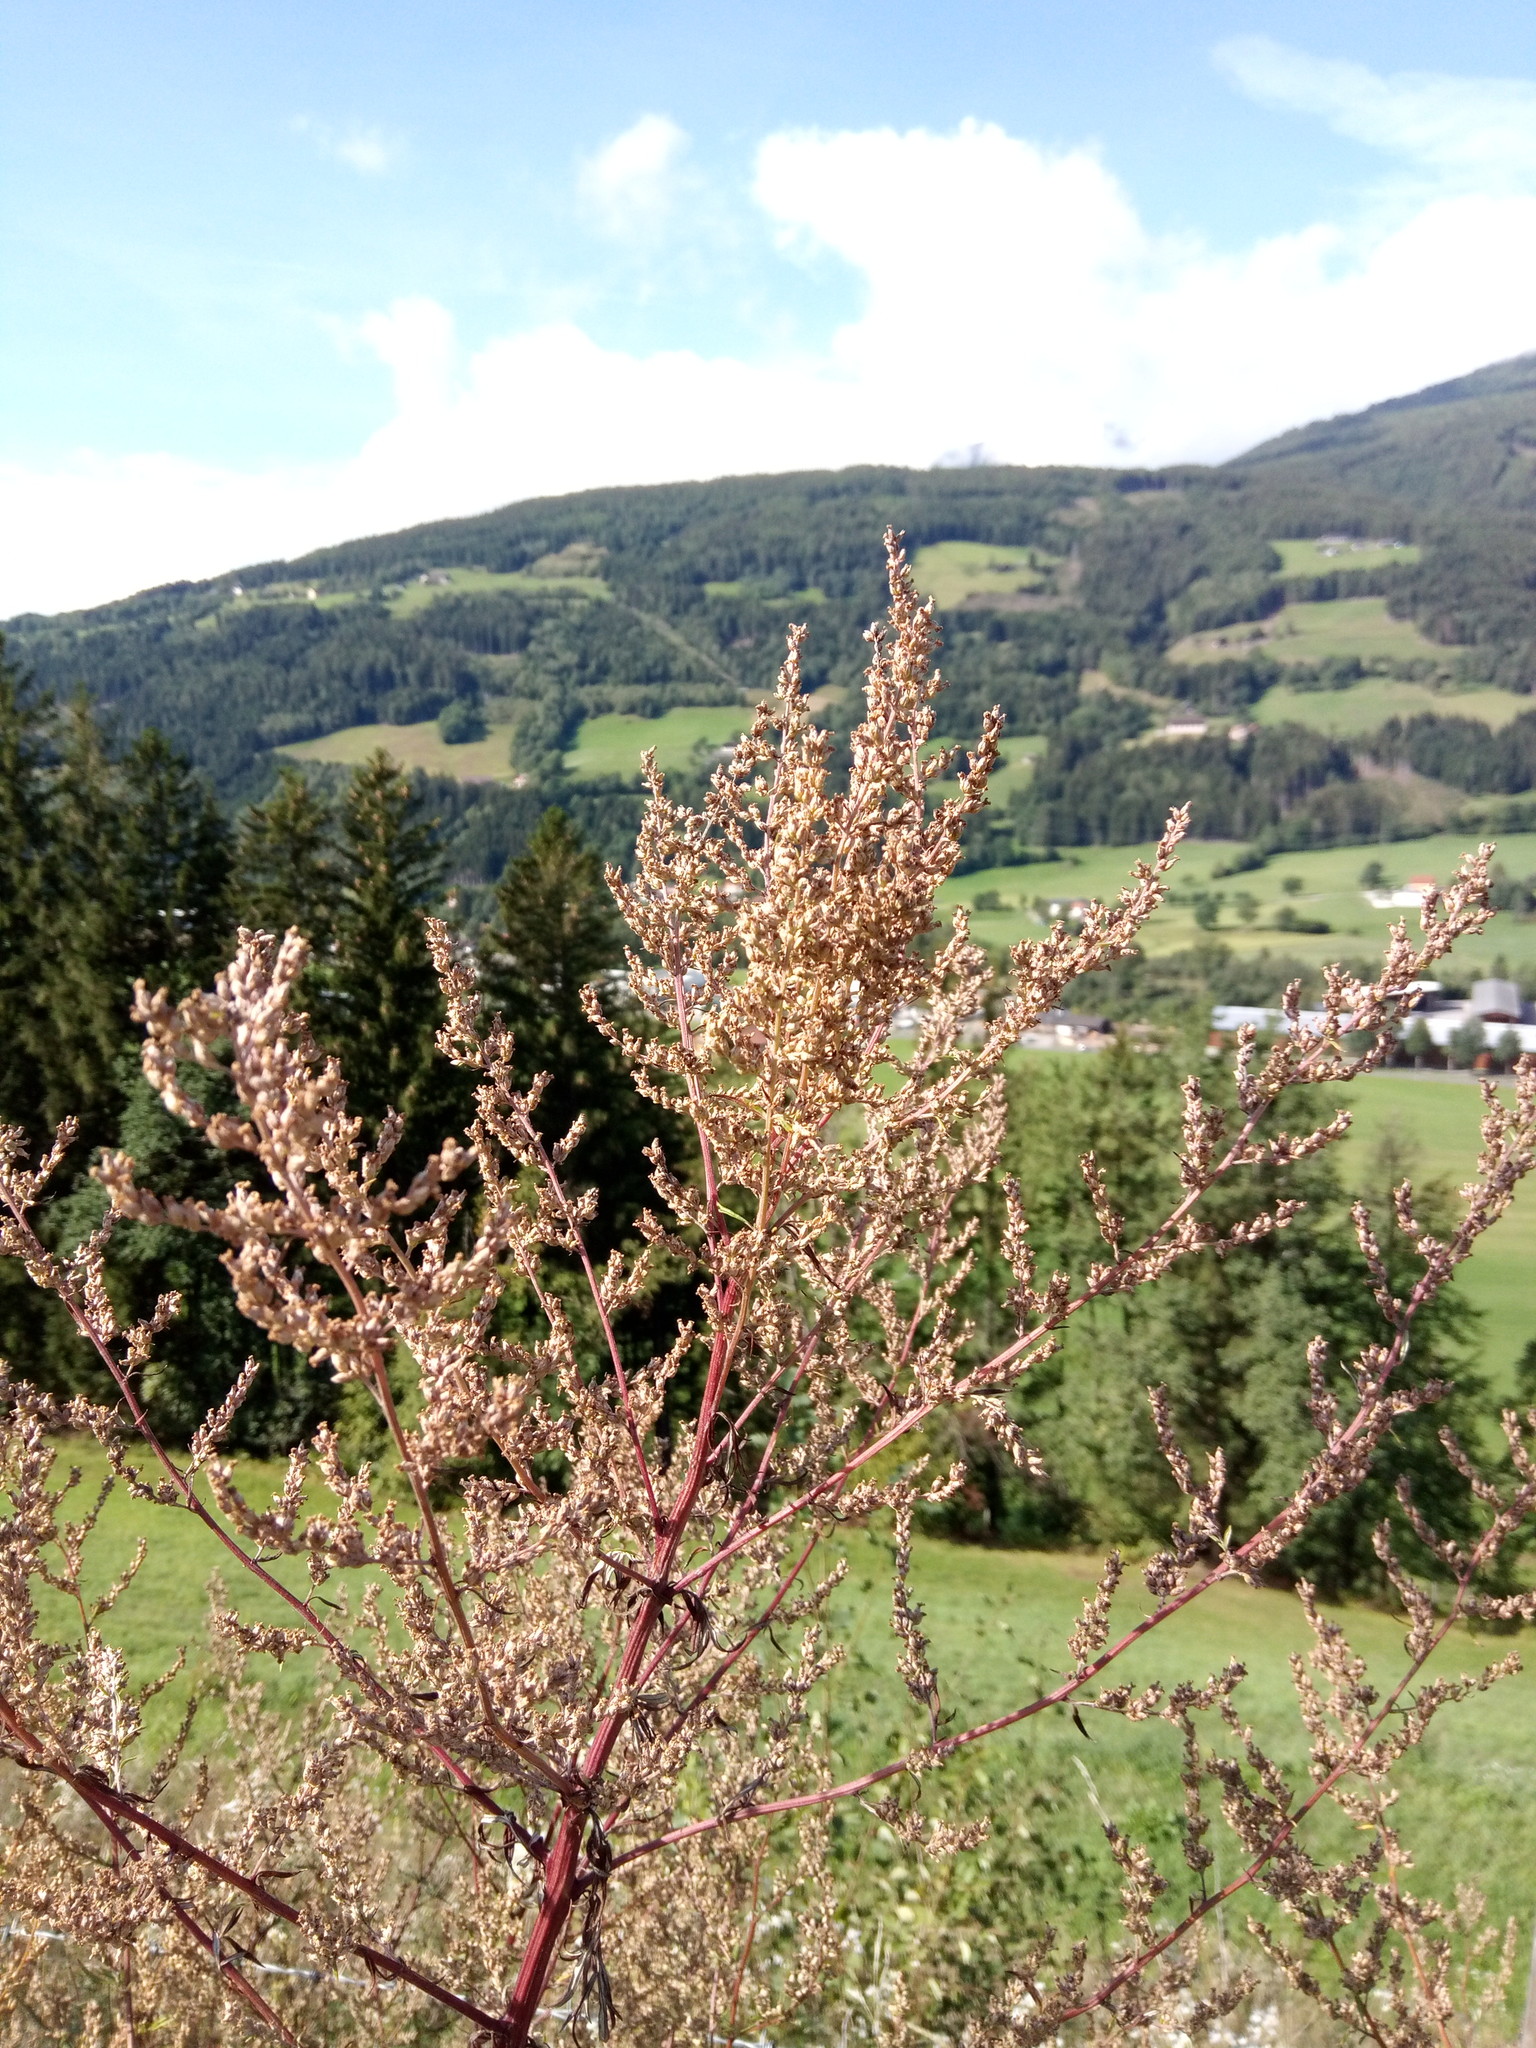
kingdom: Plantae
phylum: Tracheophyta
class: Magnoliopsida
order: Asterales
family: Asteraceae
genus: Artemisia
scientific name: Artemisia vulgaris
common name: Mugwort
